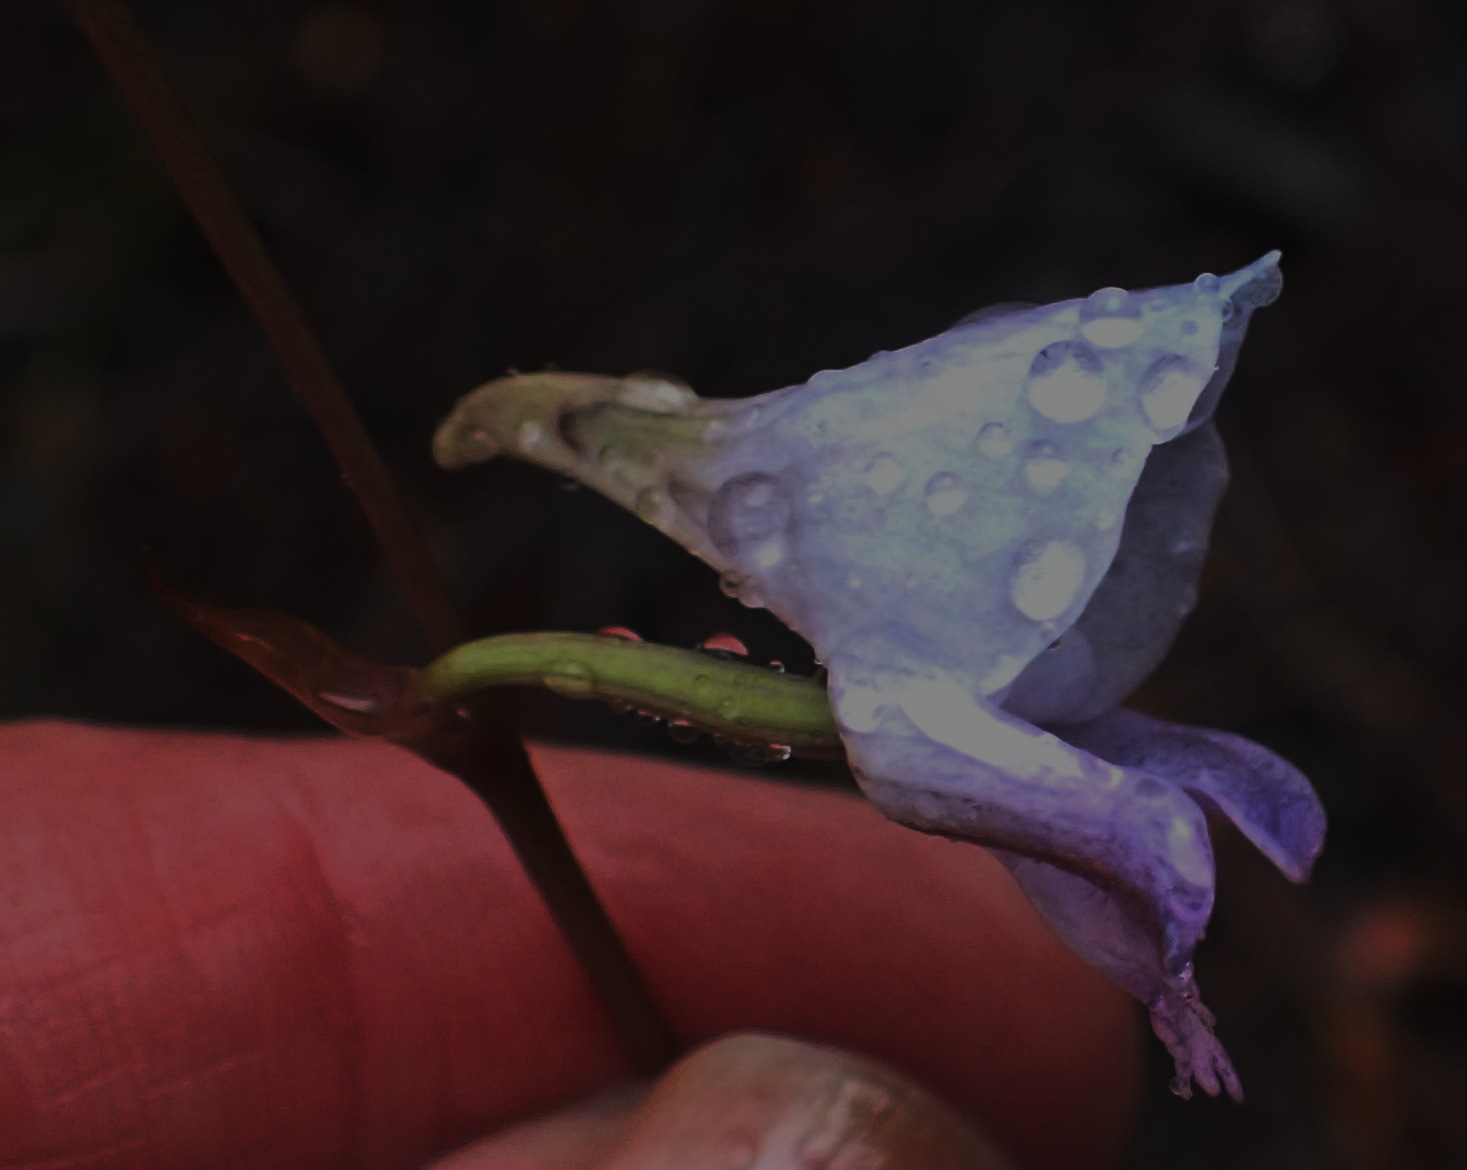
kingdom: Plantae
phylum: Tracheophyta
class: Liliopsida
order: Asparagales
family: Orchidaceae
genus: Disa
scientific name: Disa hians
